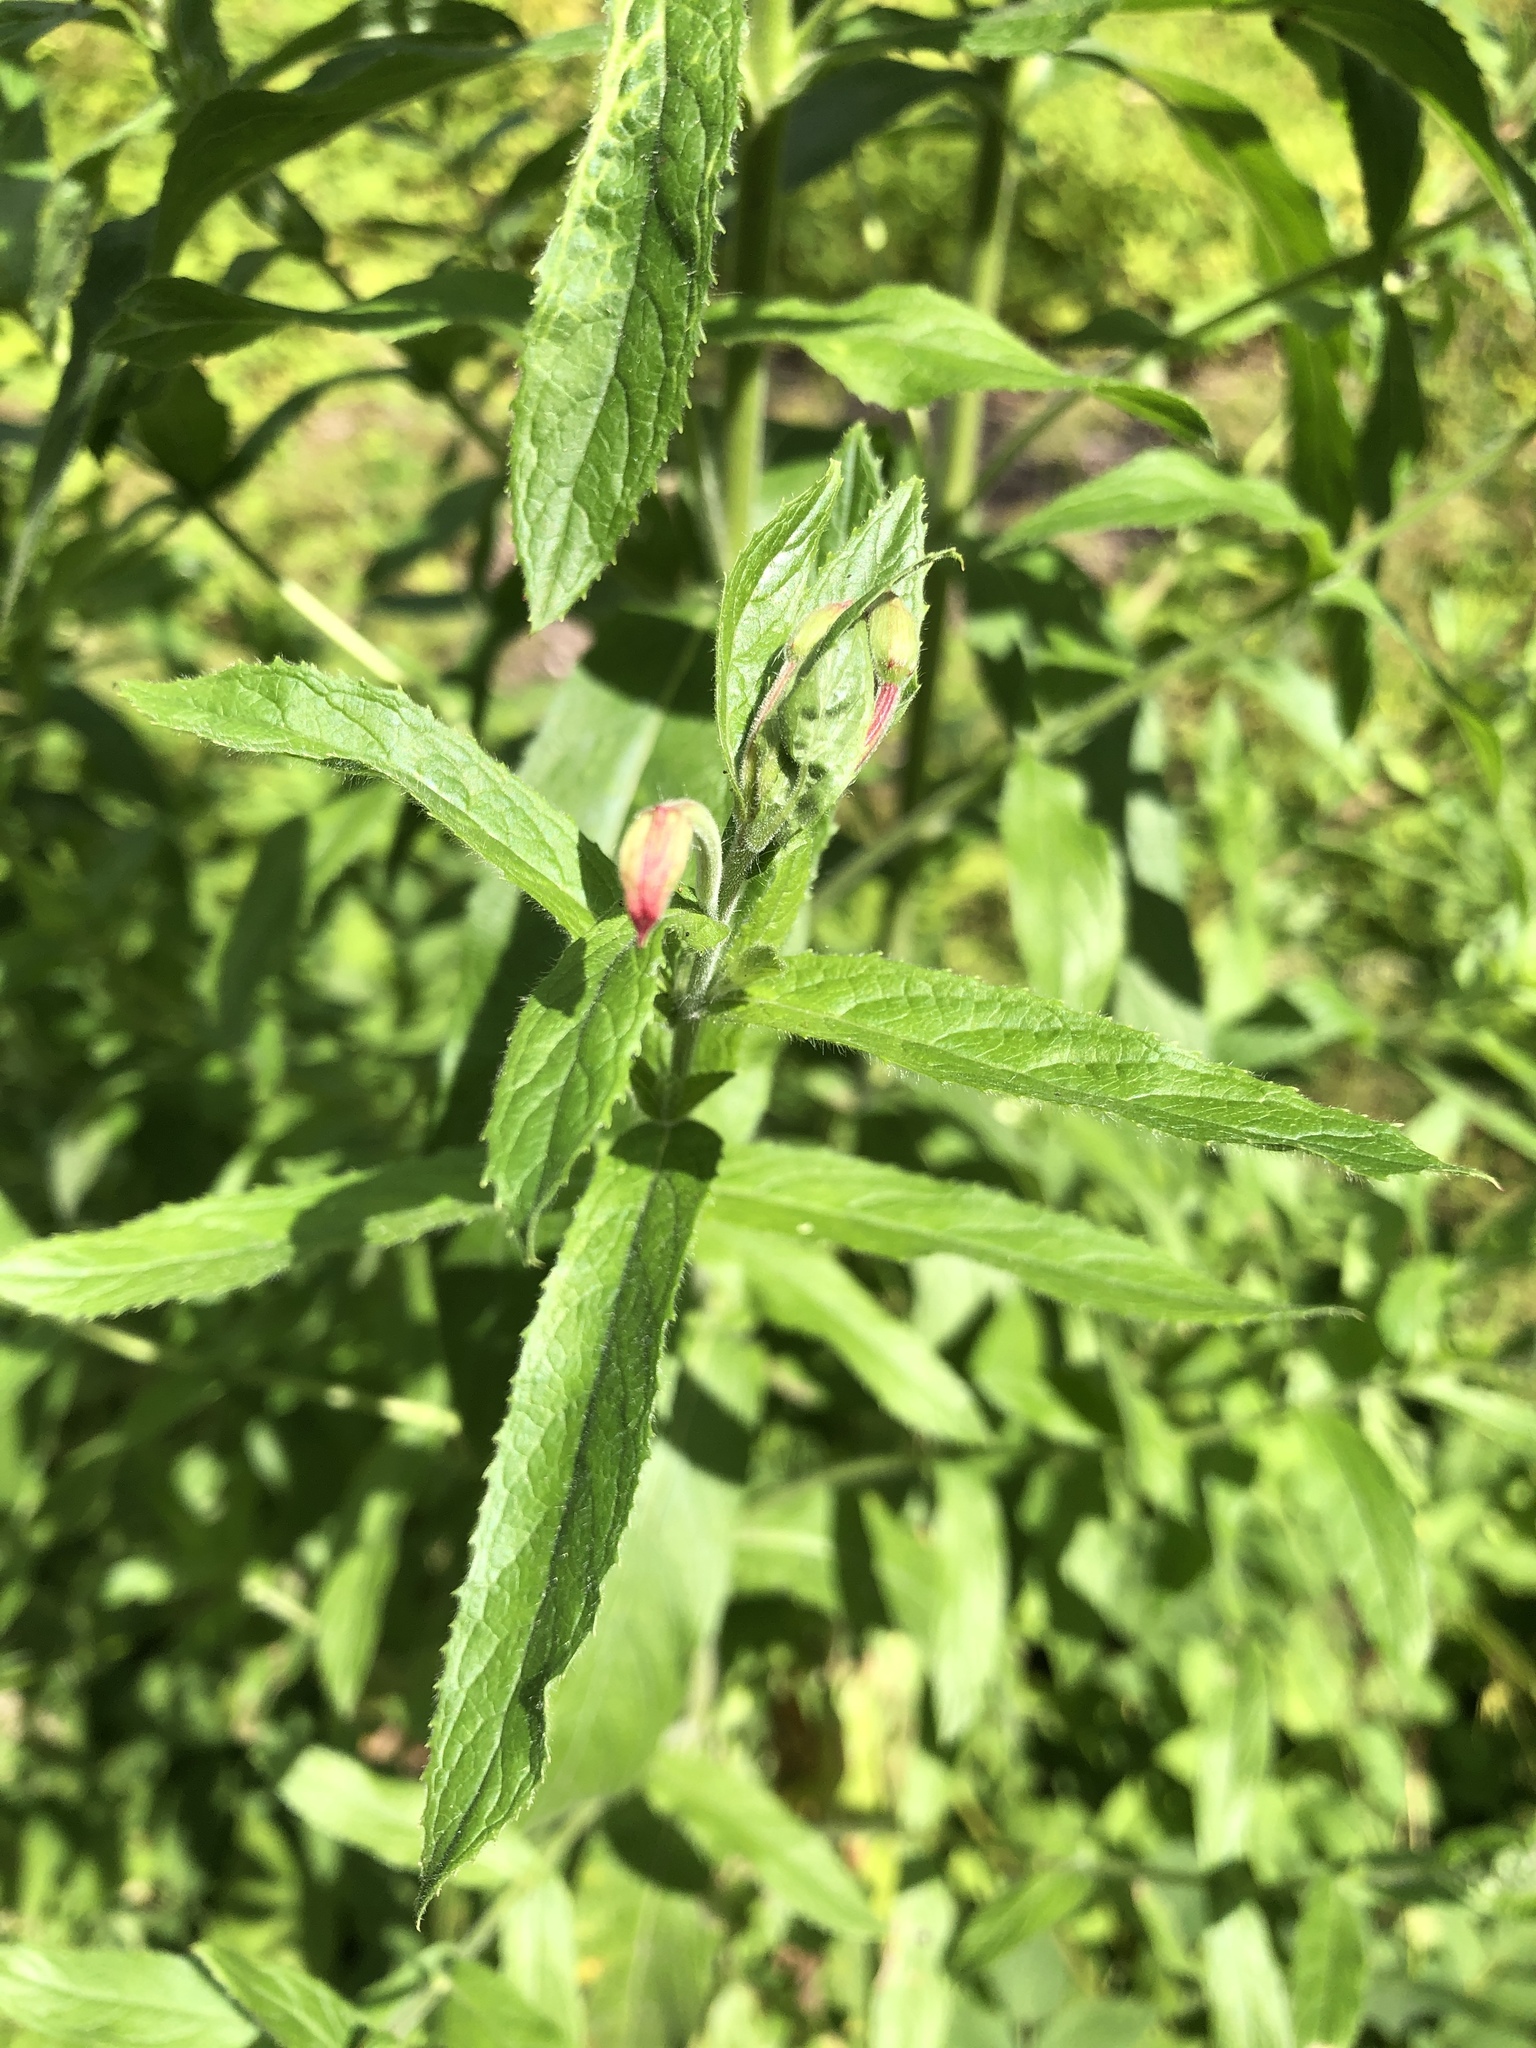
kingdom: Plantae
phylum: Tracheophyta
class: Magnoliopsida
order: Myrtales
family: Onagraceae
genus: Epilobium
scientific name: Epilobium hirsutum
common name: Great willowherb
